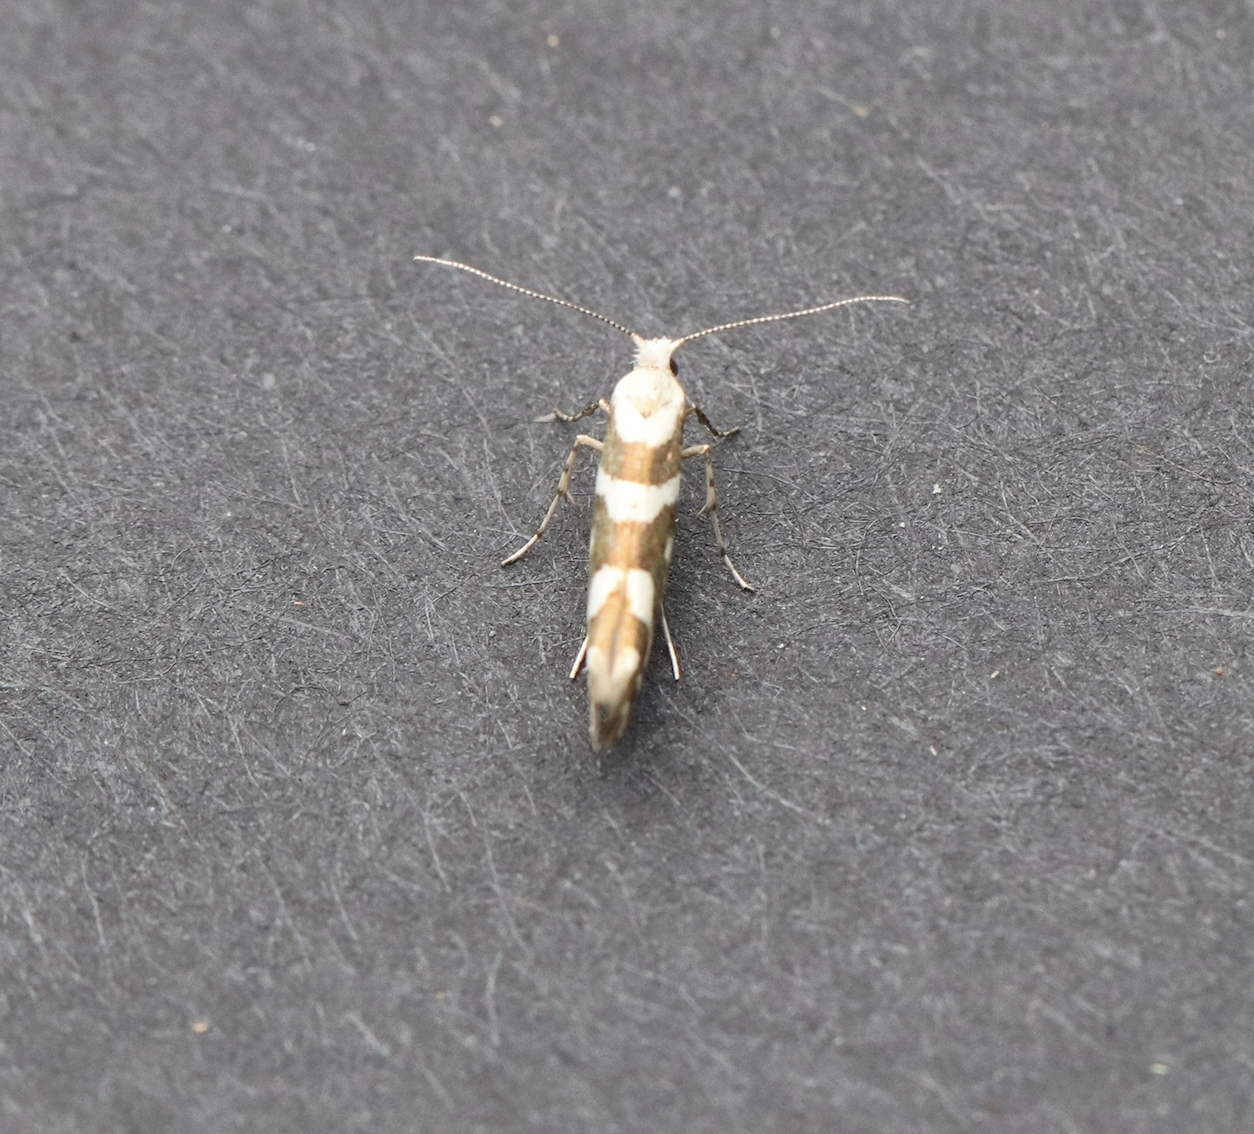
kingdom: Animalia
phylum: Arthropoda
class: Insecta
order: Lepidoptera
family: Argyresthiidae
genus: Argyresthia
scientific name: Argyresthia calliphanes
